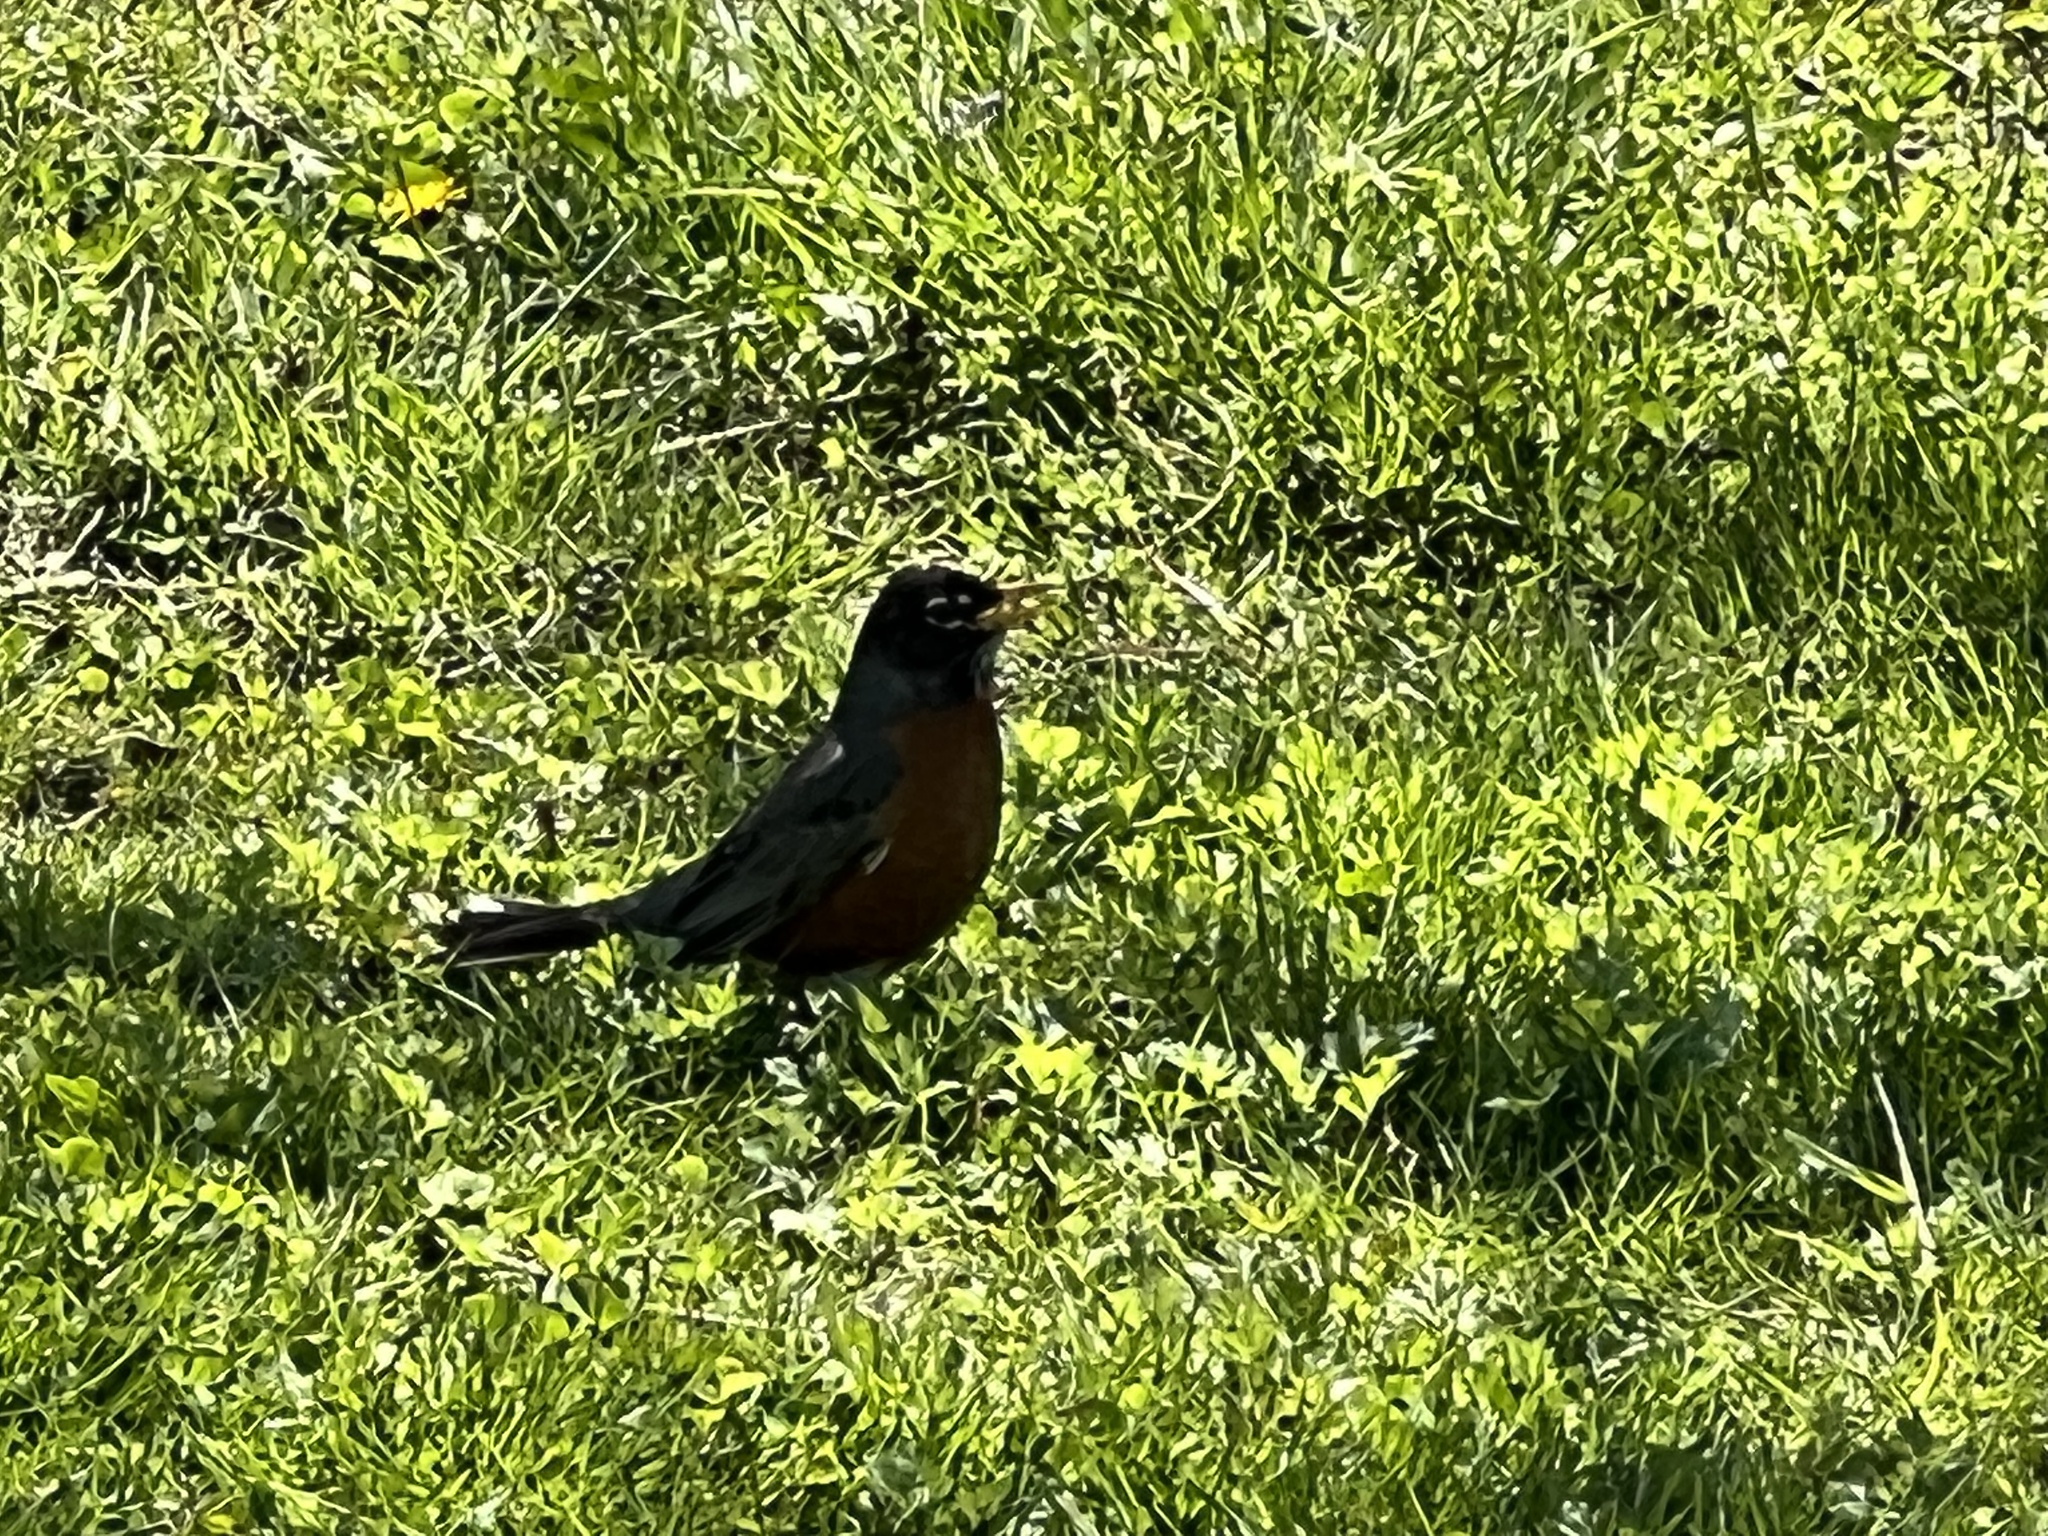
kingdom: Animalia
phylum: Chordata
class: Aves
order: Passeriformes
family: Turdidae
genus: Turdus
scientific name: Turdus migratorius
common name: American robin
